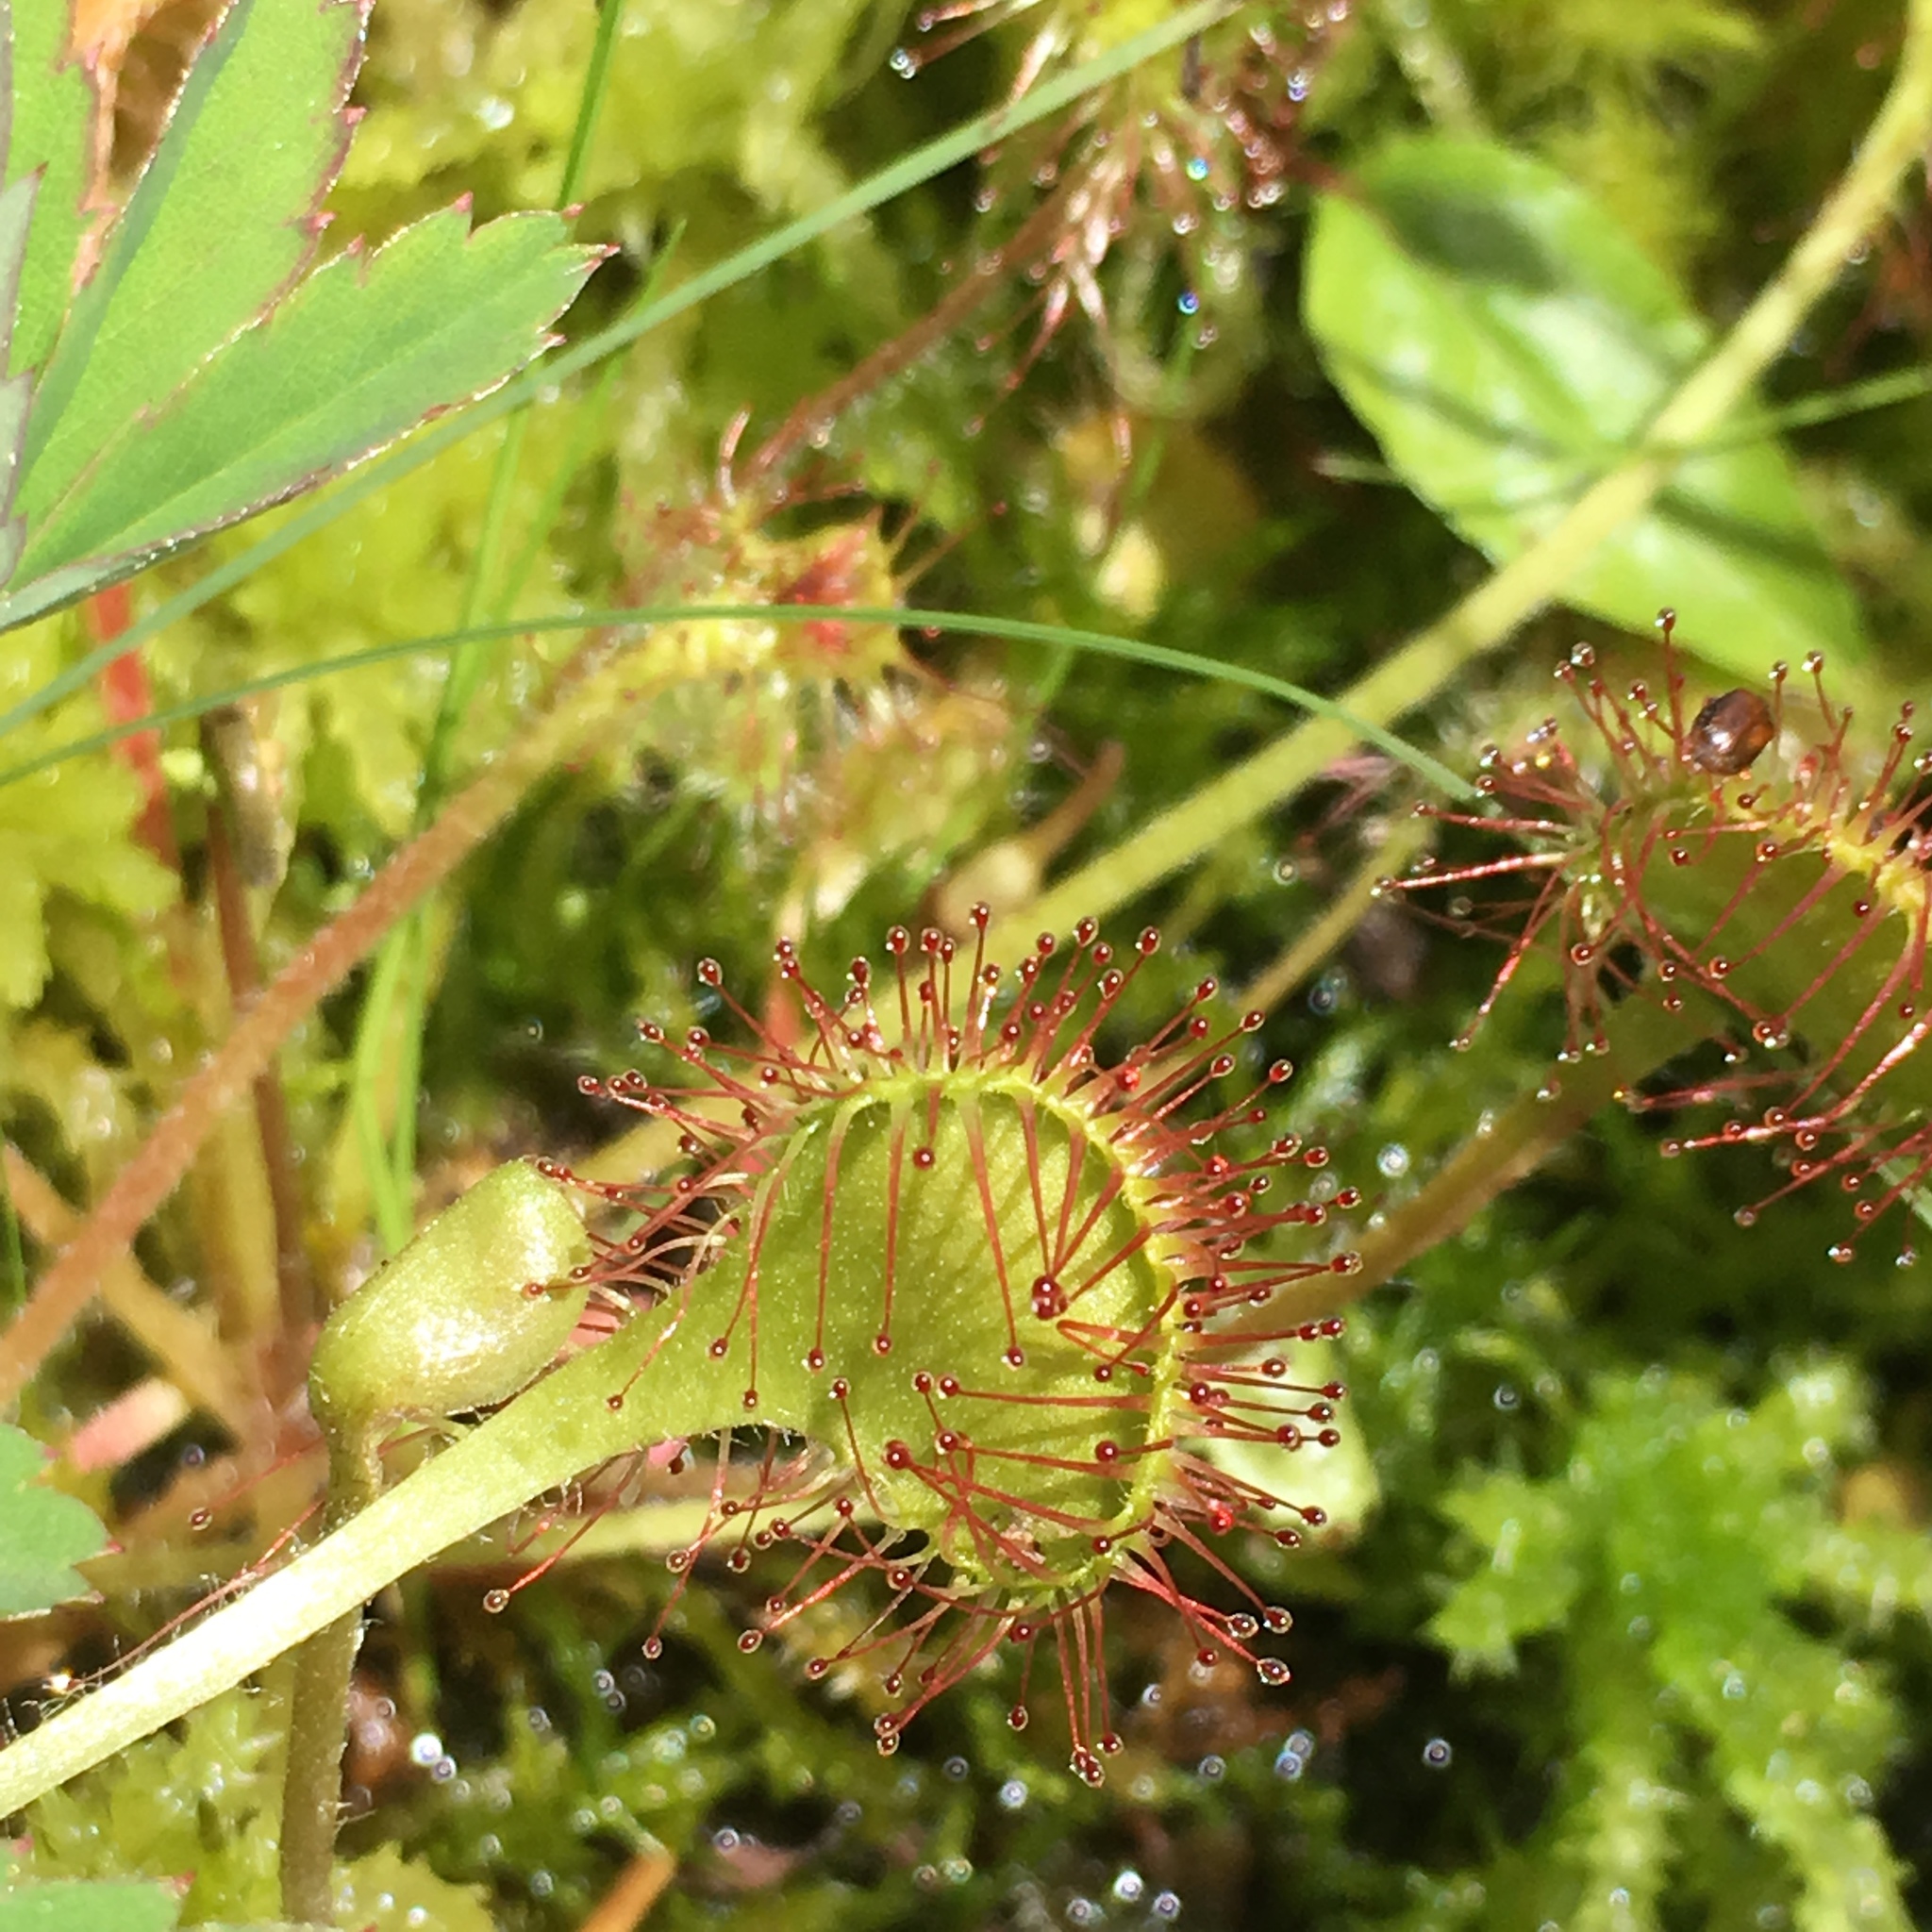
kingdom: Plantae
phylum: Tracheophyta
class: Magnoliopsida
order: Caryophyllales
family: Droseraceae
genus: Drosera
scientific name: Drosera rotundifolia
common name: Round-leaved sundew
